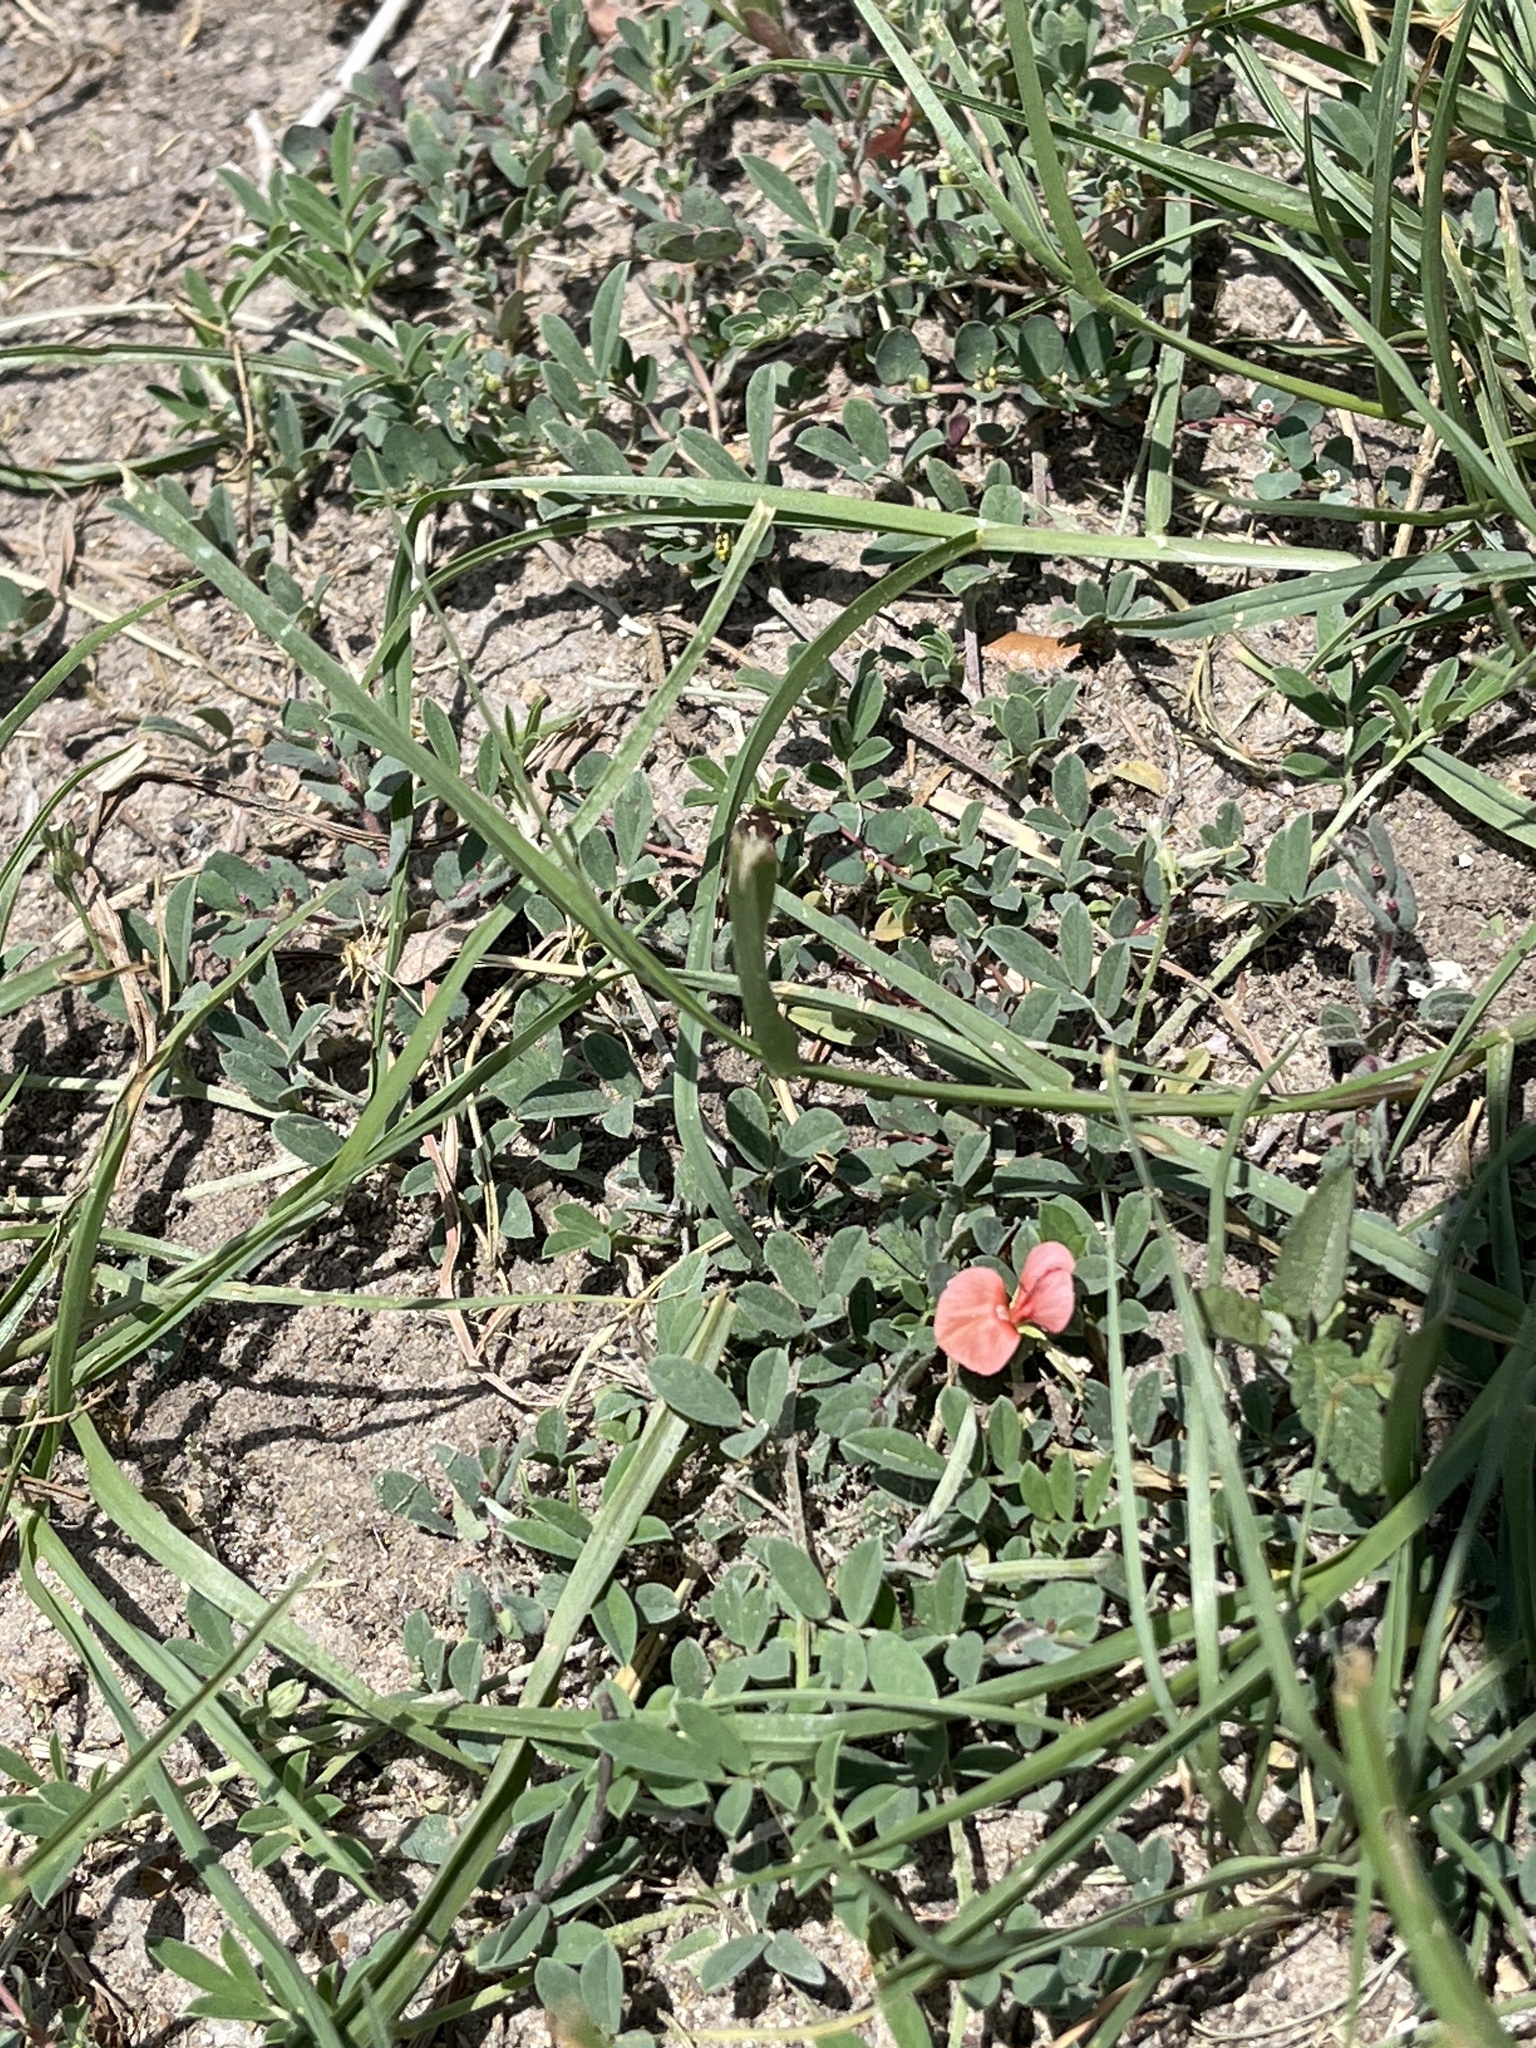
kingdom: Plantae
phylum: Tracheophyta
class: Magnoliopsida
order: Fabales
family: Fabaceae
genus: Indigofera
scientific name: Indigofera miniata
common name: Coast indigo
